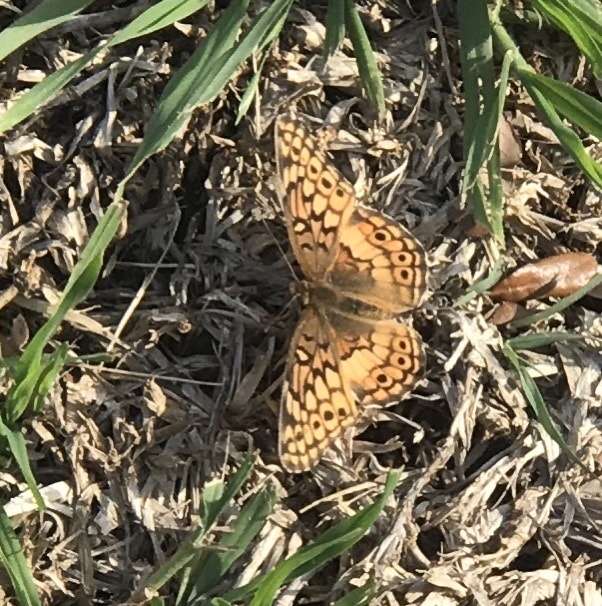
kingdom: Animalia
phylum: Arthropoda
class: Insecta
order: Lepidoptera
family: Nymphalidae
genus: Euptoieta
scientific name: Euptoieta claudia
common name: Variegated fritillary
